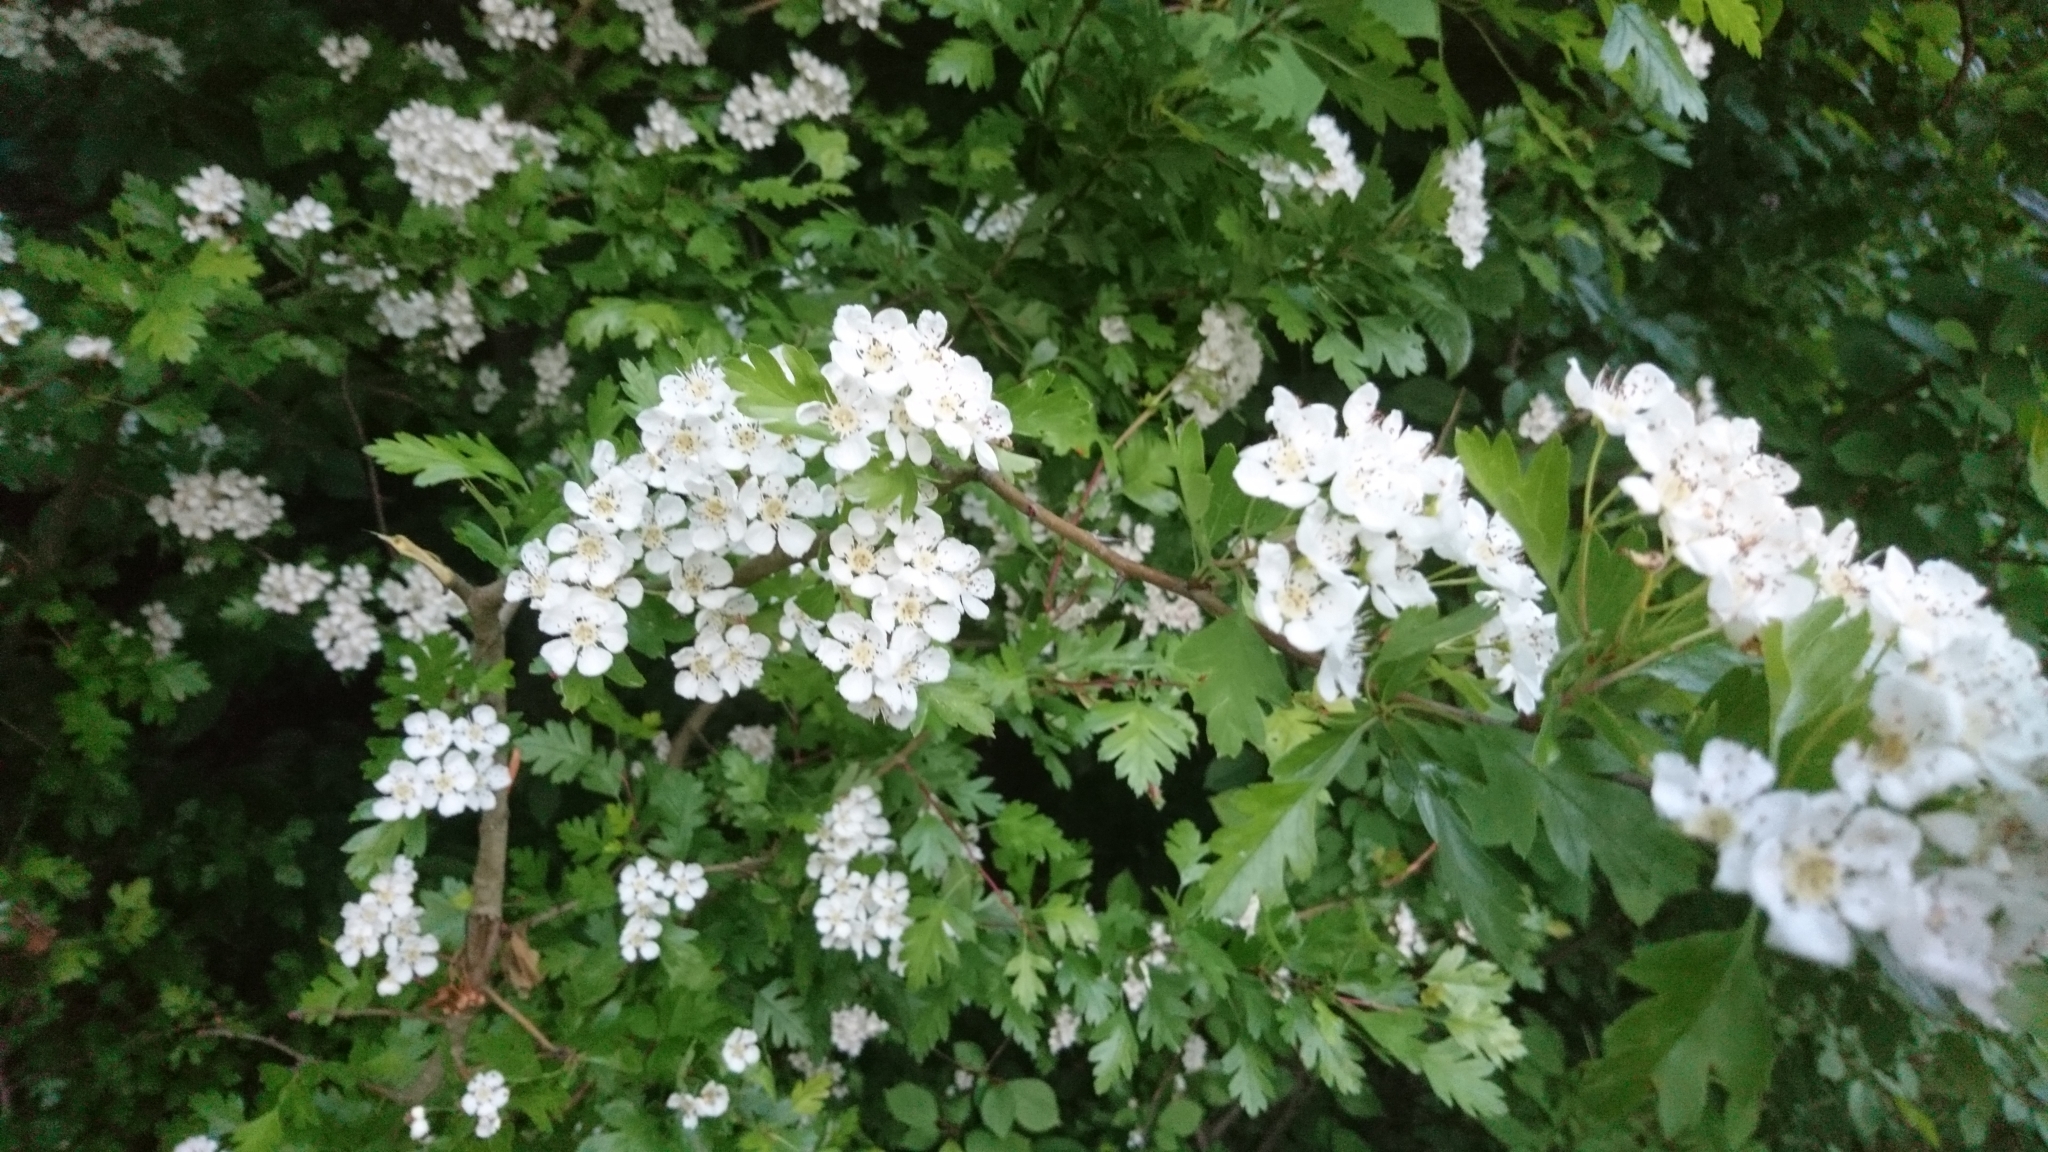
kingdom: Plantae
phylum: Tracheophyta
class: Magnoliopsida
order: Rosales
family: Rosaceae
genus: Crataegus
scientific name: Crataegus monogyna
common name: Hawthorn
